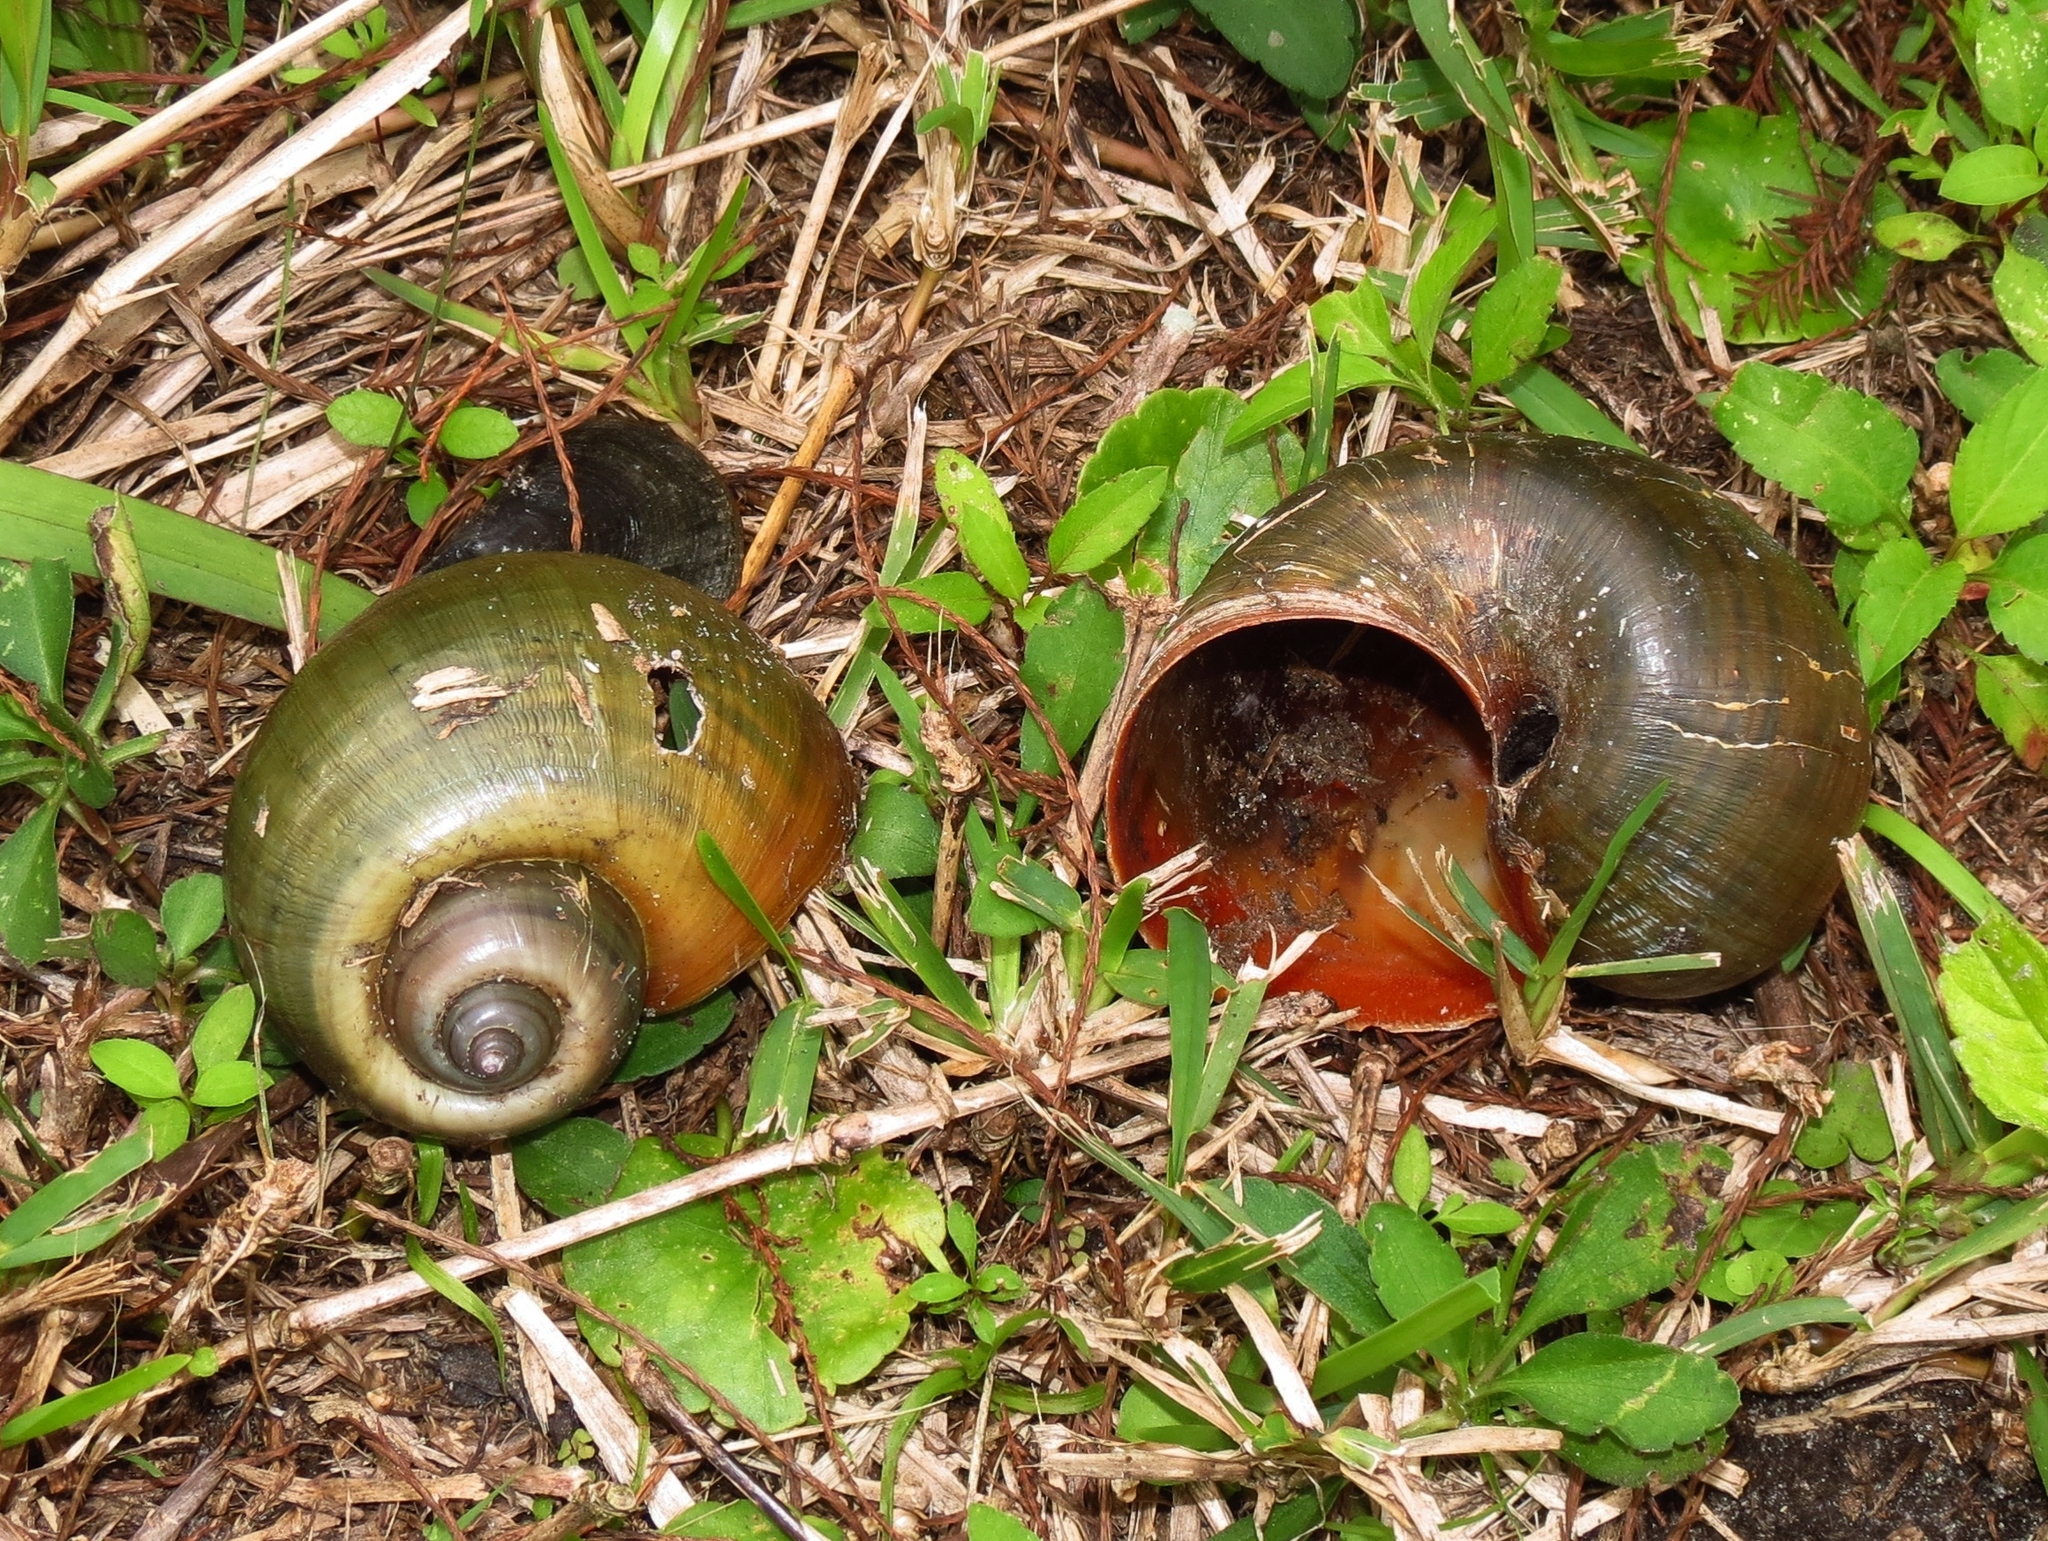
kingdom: Animalia
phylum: Mollusca
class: Gastropoda
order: Architaenioglossa
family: Ampullariidae
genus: Pomacea
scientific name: Pomacea maculata
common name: Giant applesnail
